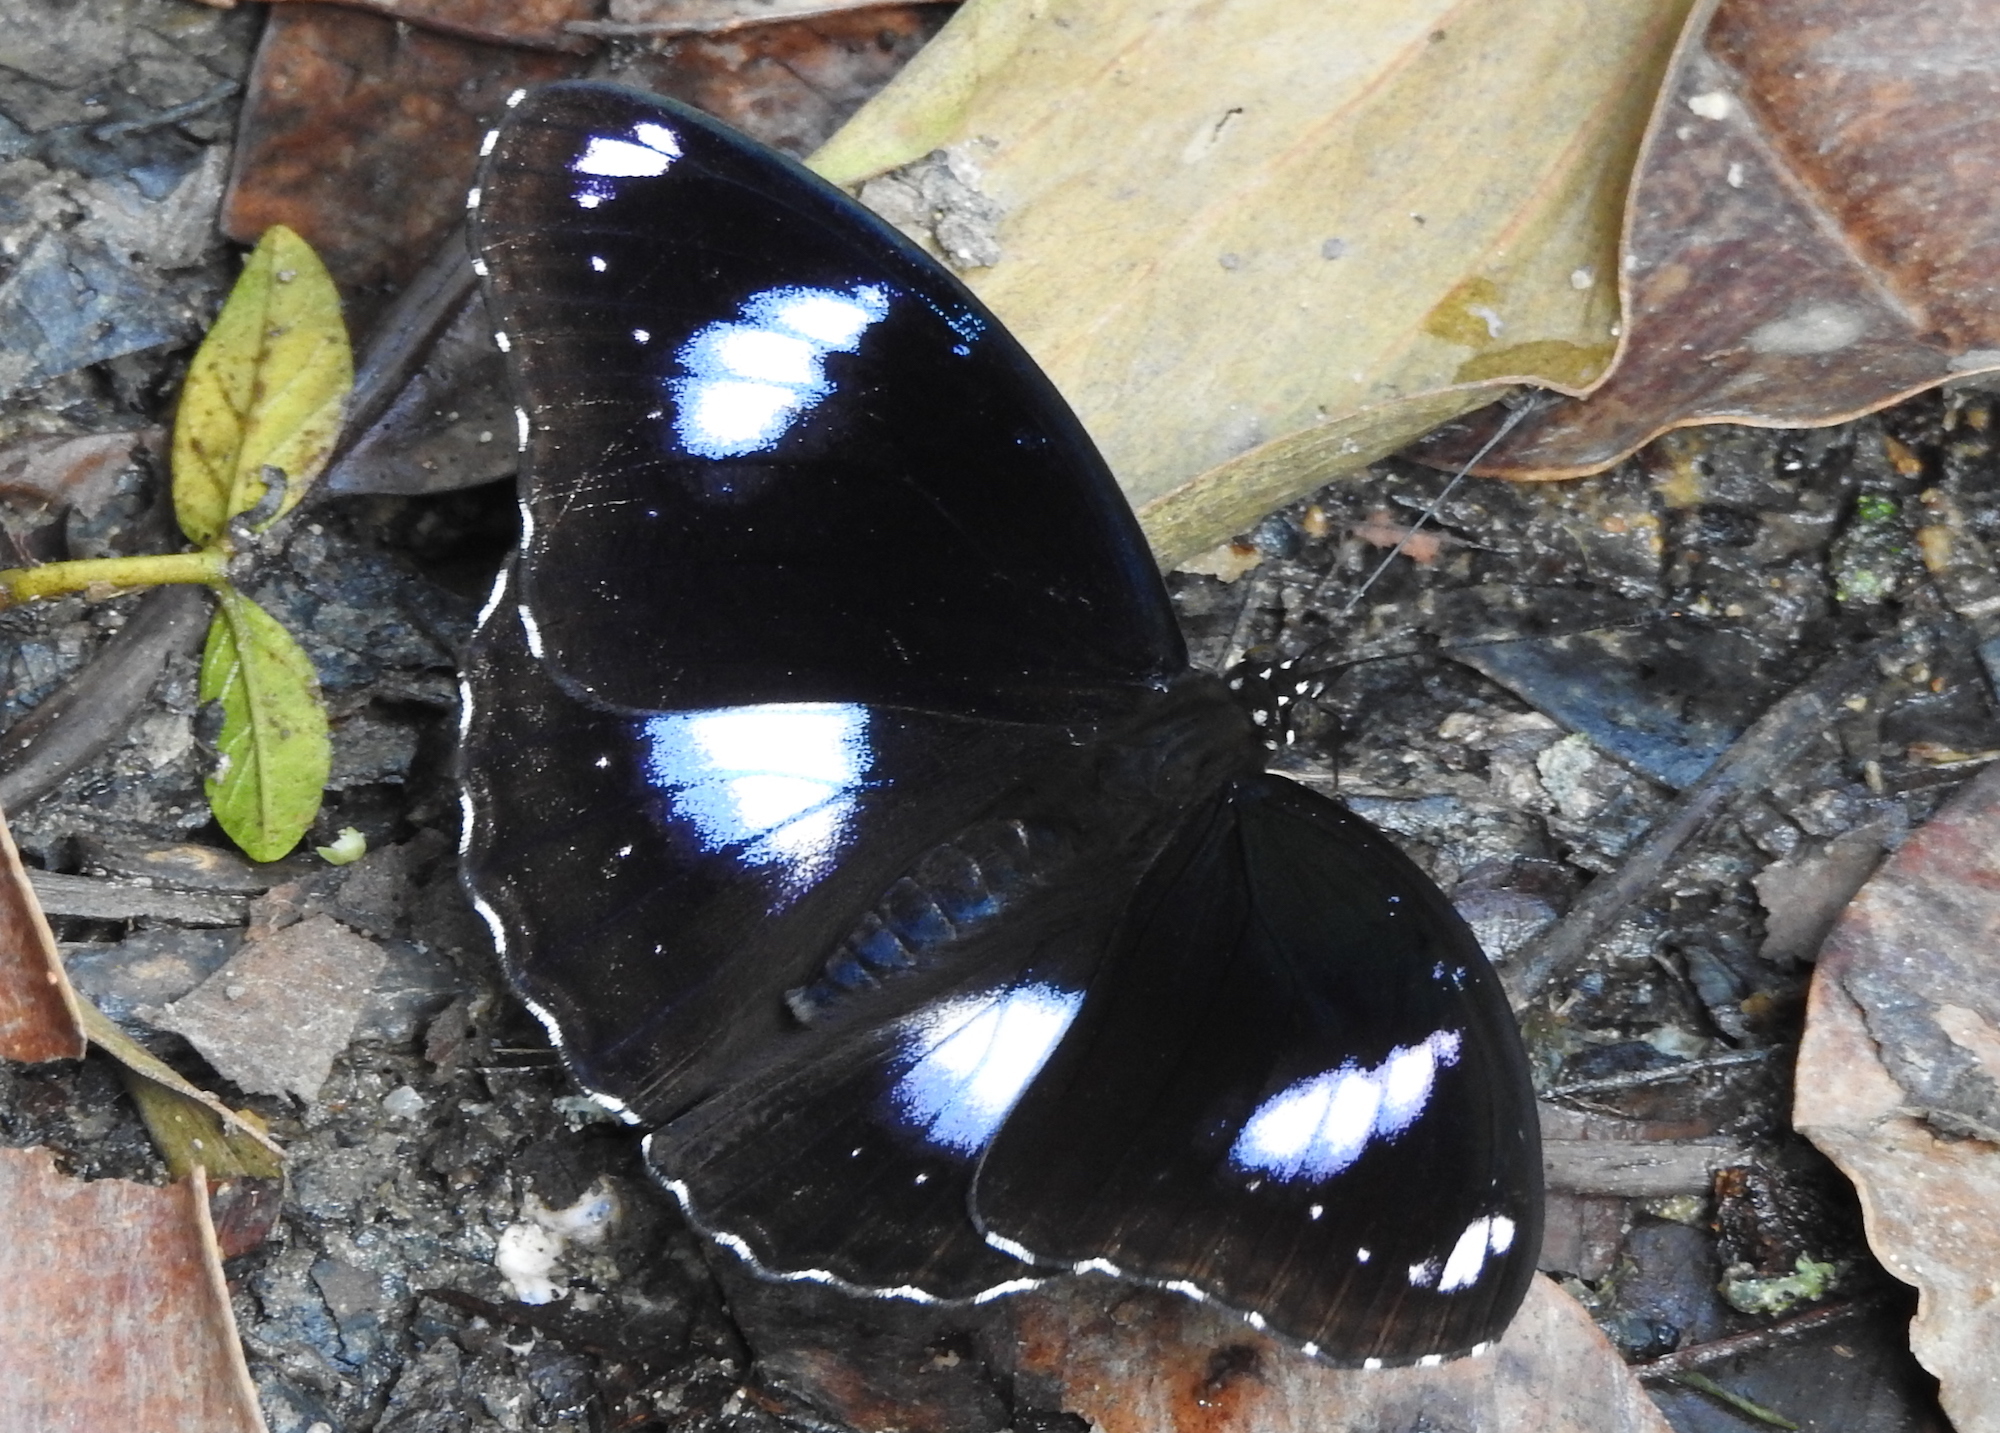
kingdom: Animalia
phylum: Arthropoda
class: Insecta
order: Lepidoptera
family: Nymphalidae
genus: Hypolimnas
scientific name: Hypolimnas bolina
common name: Great eggfly
